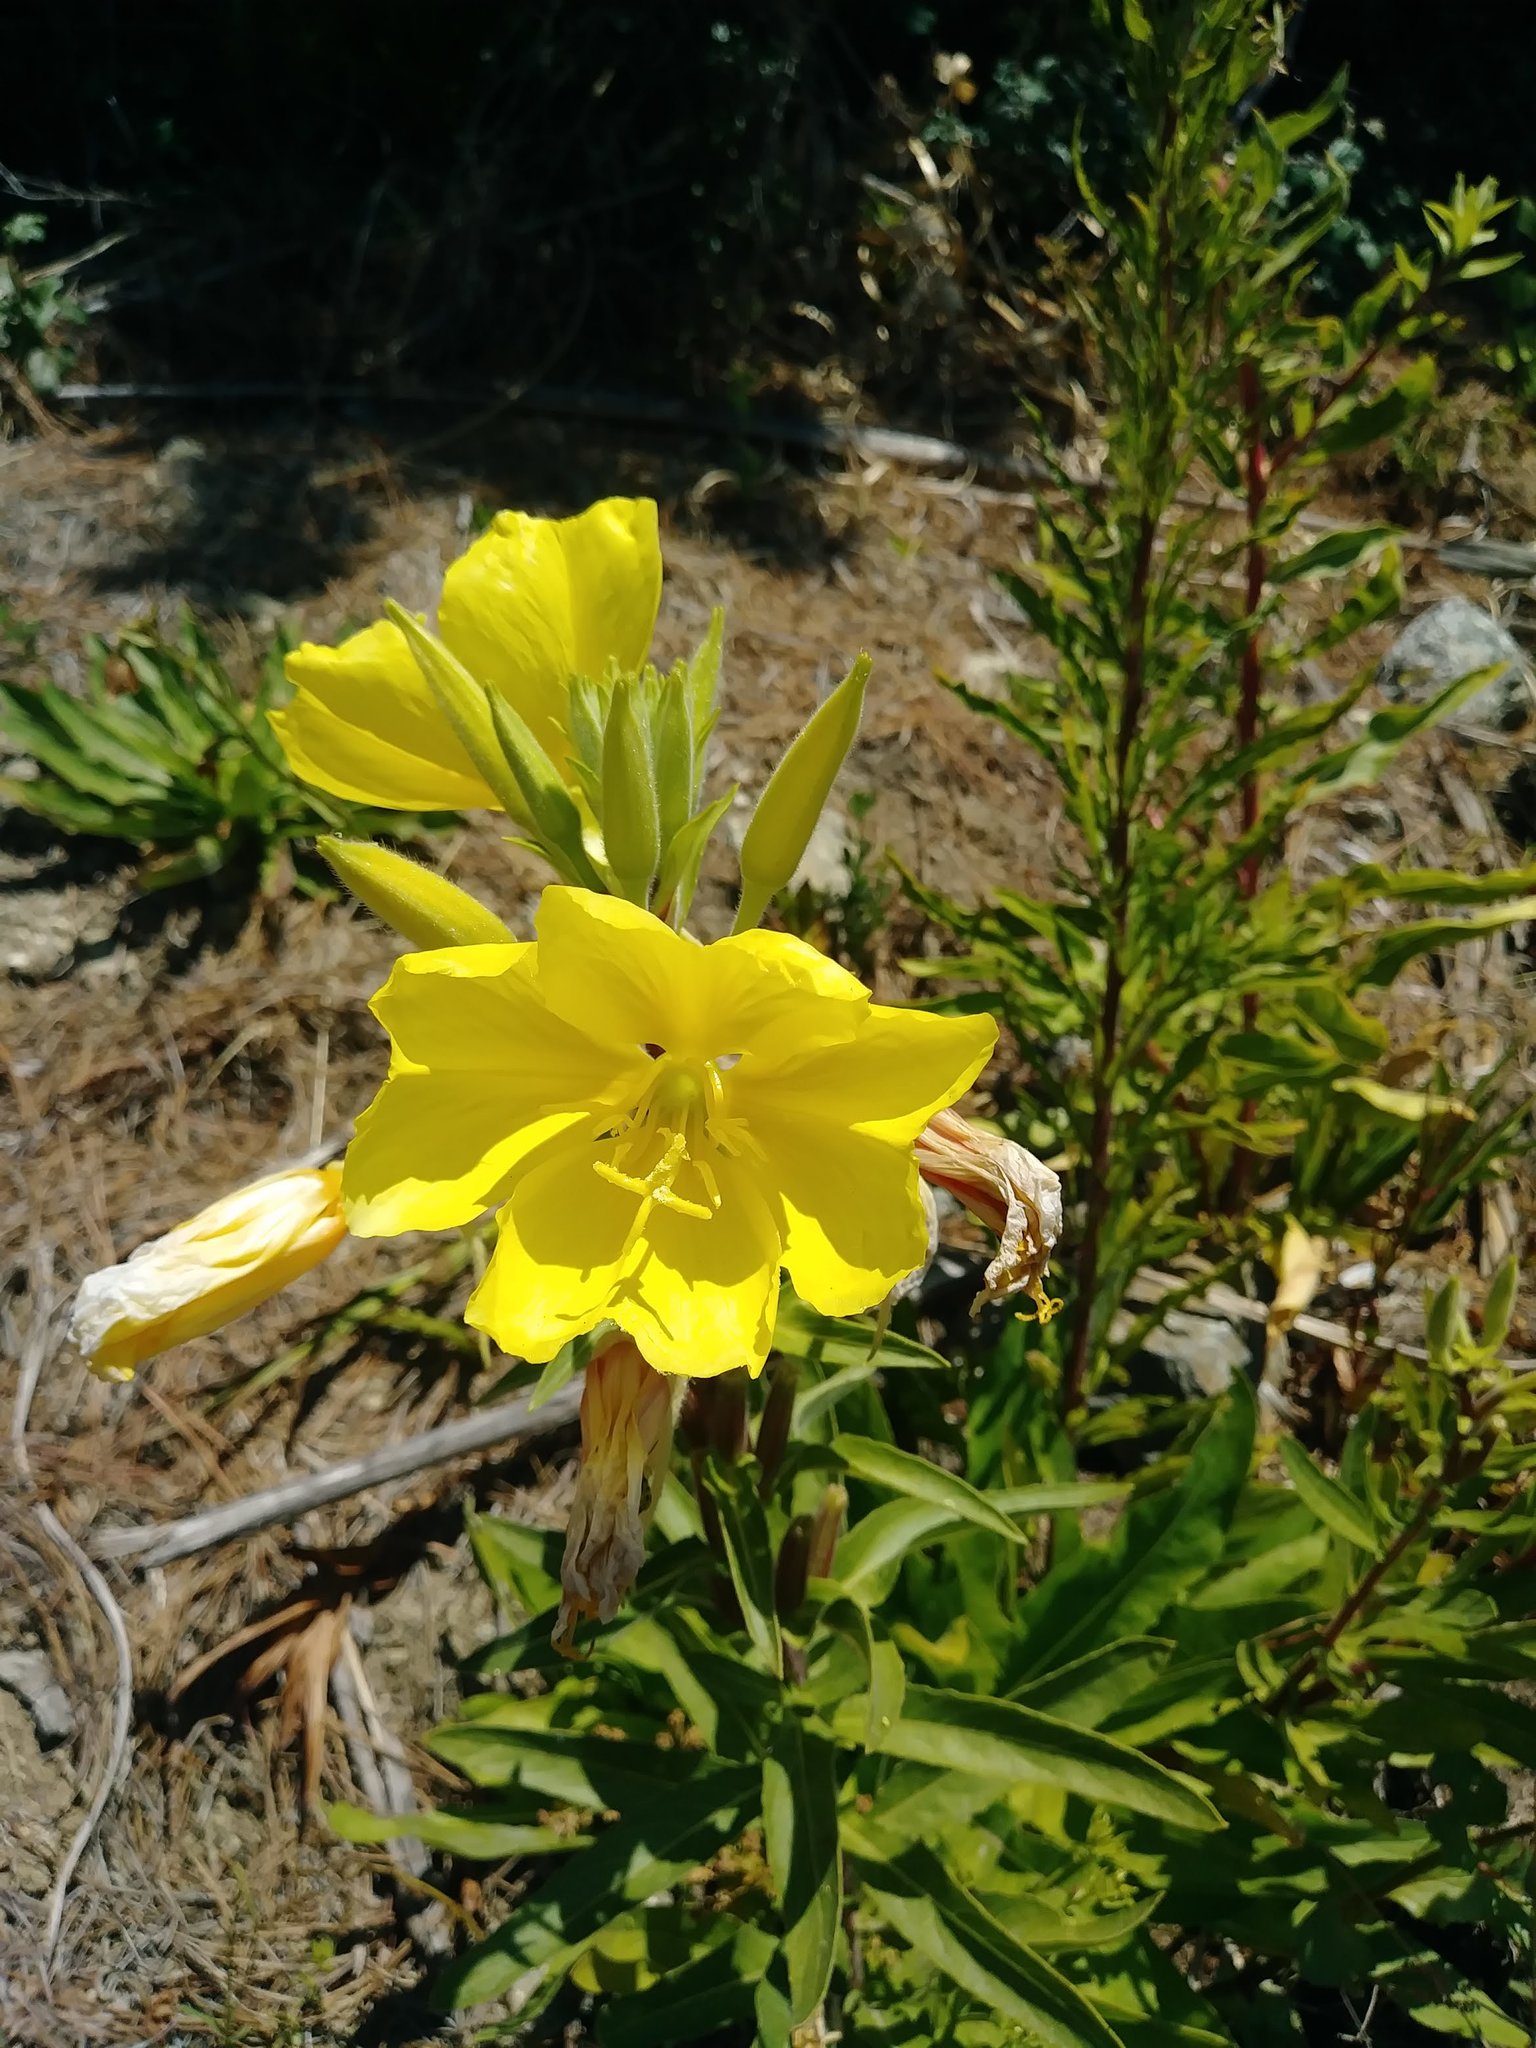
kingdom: Plantae
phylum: Tracheophyta
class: Magnoliopsida
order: Myrtales
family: Onagraceae
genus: Oenothera
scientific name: Oenothera elata
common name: Hooker's evening-primrose
